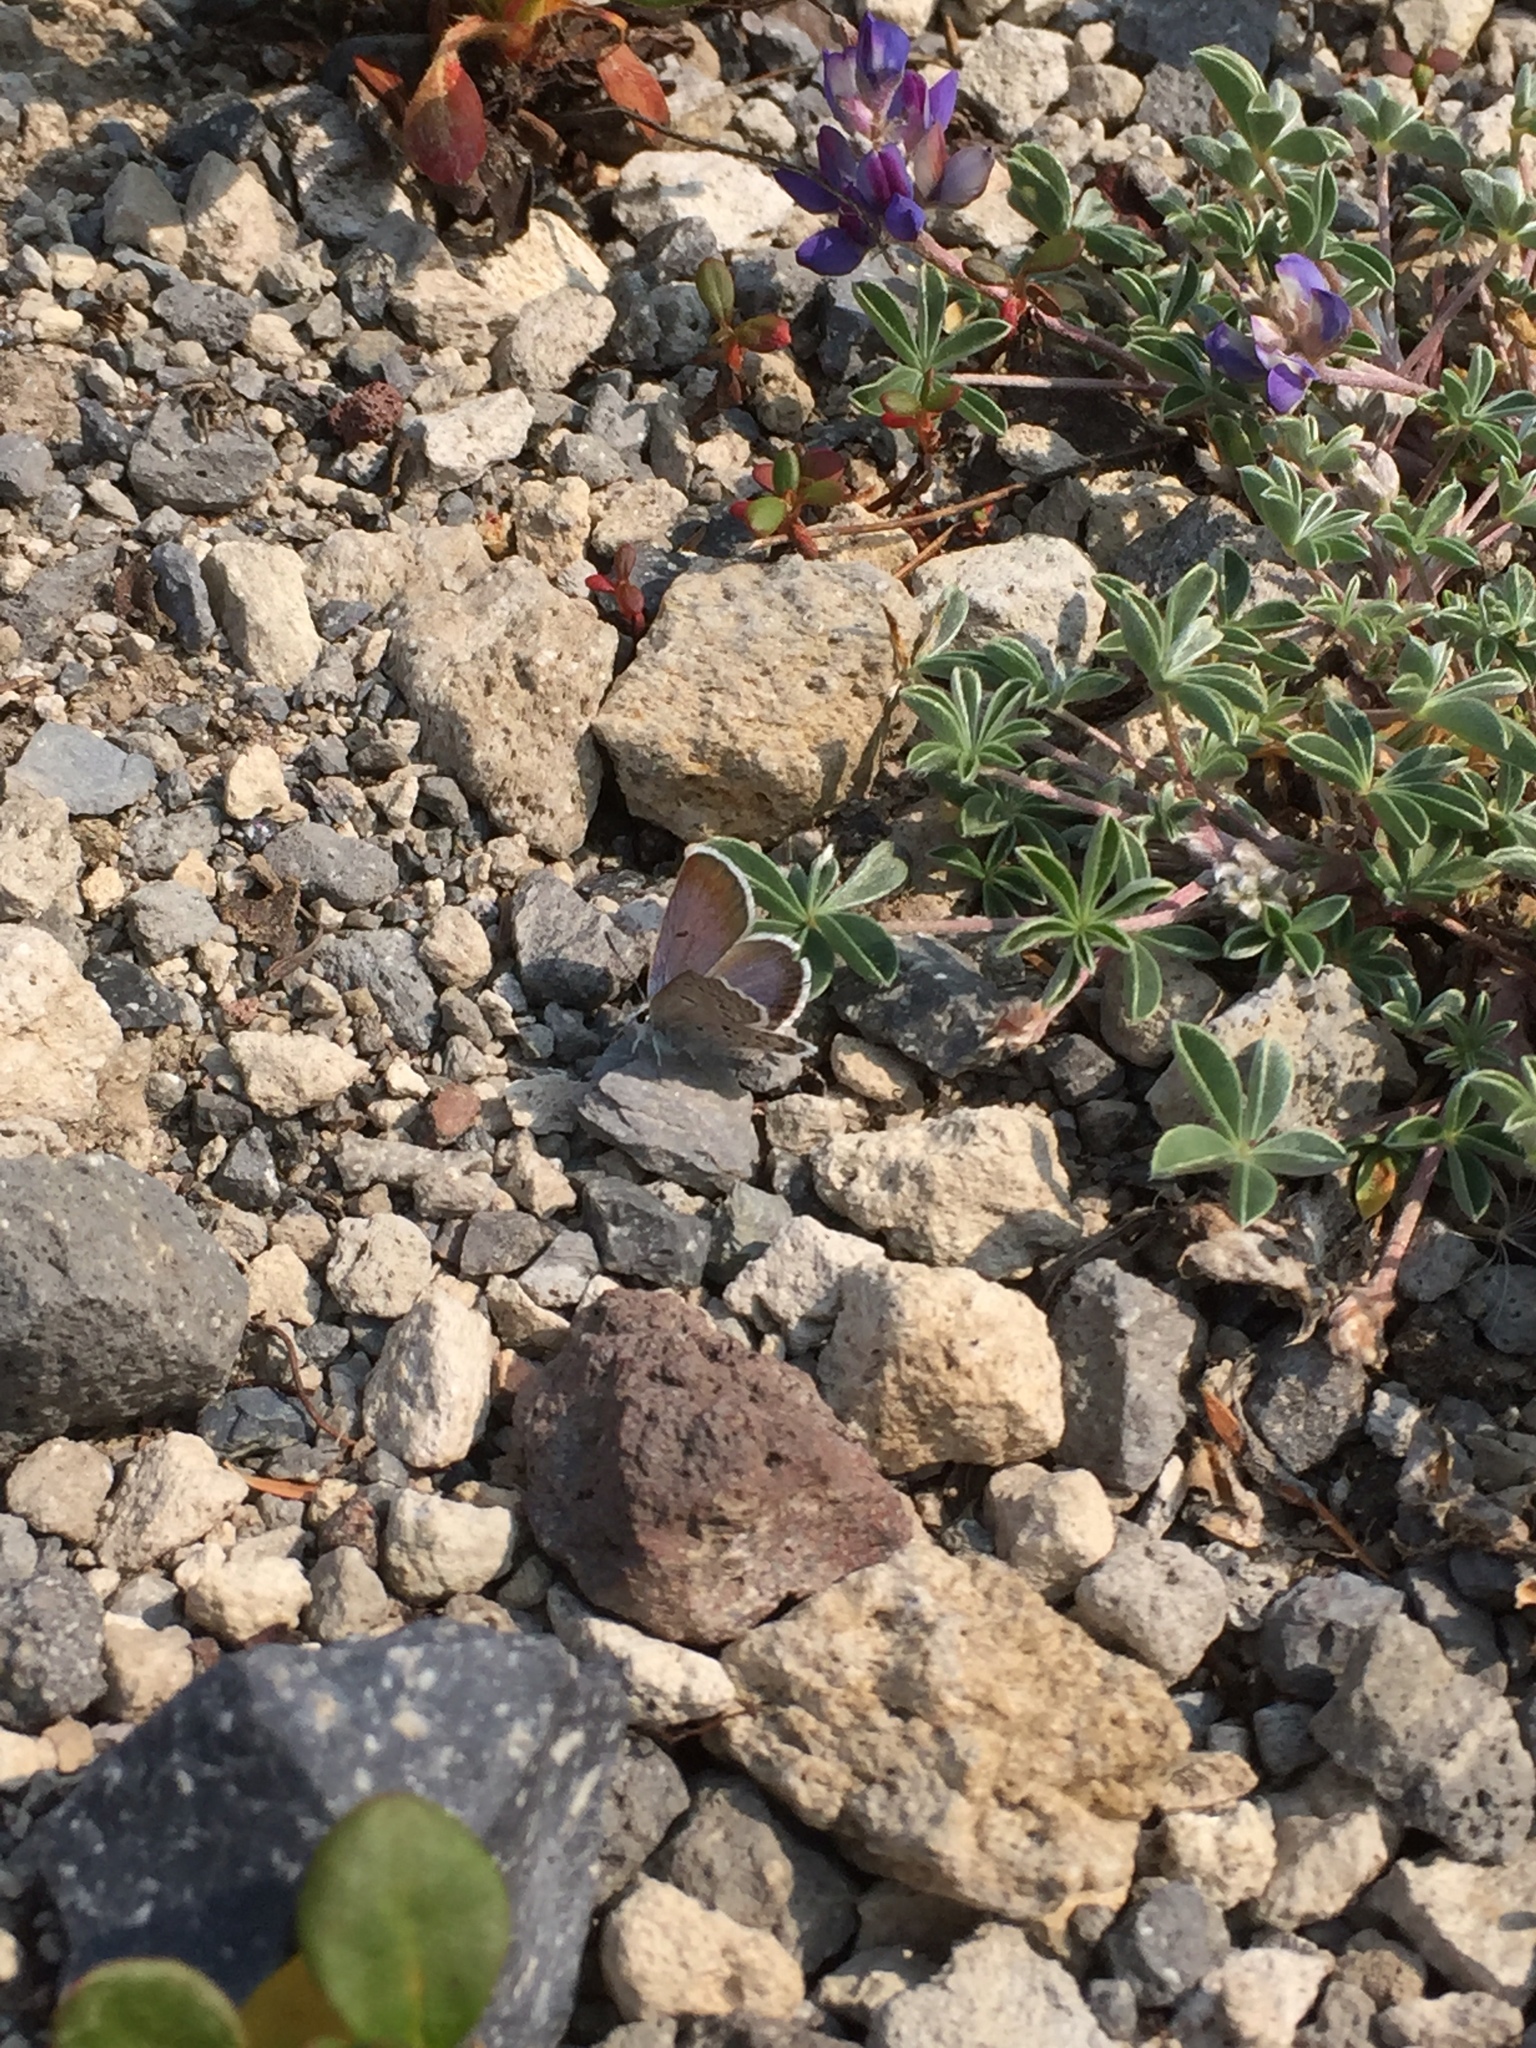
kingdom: Animalia
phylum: Arthropoda
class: Insecta
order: Lepidoptera
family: Lycaenidae
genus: Icaricia
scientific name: Icaricia shasta
